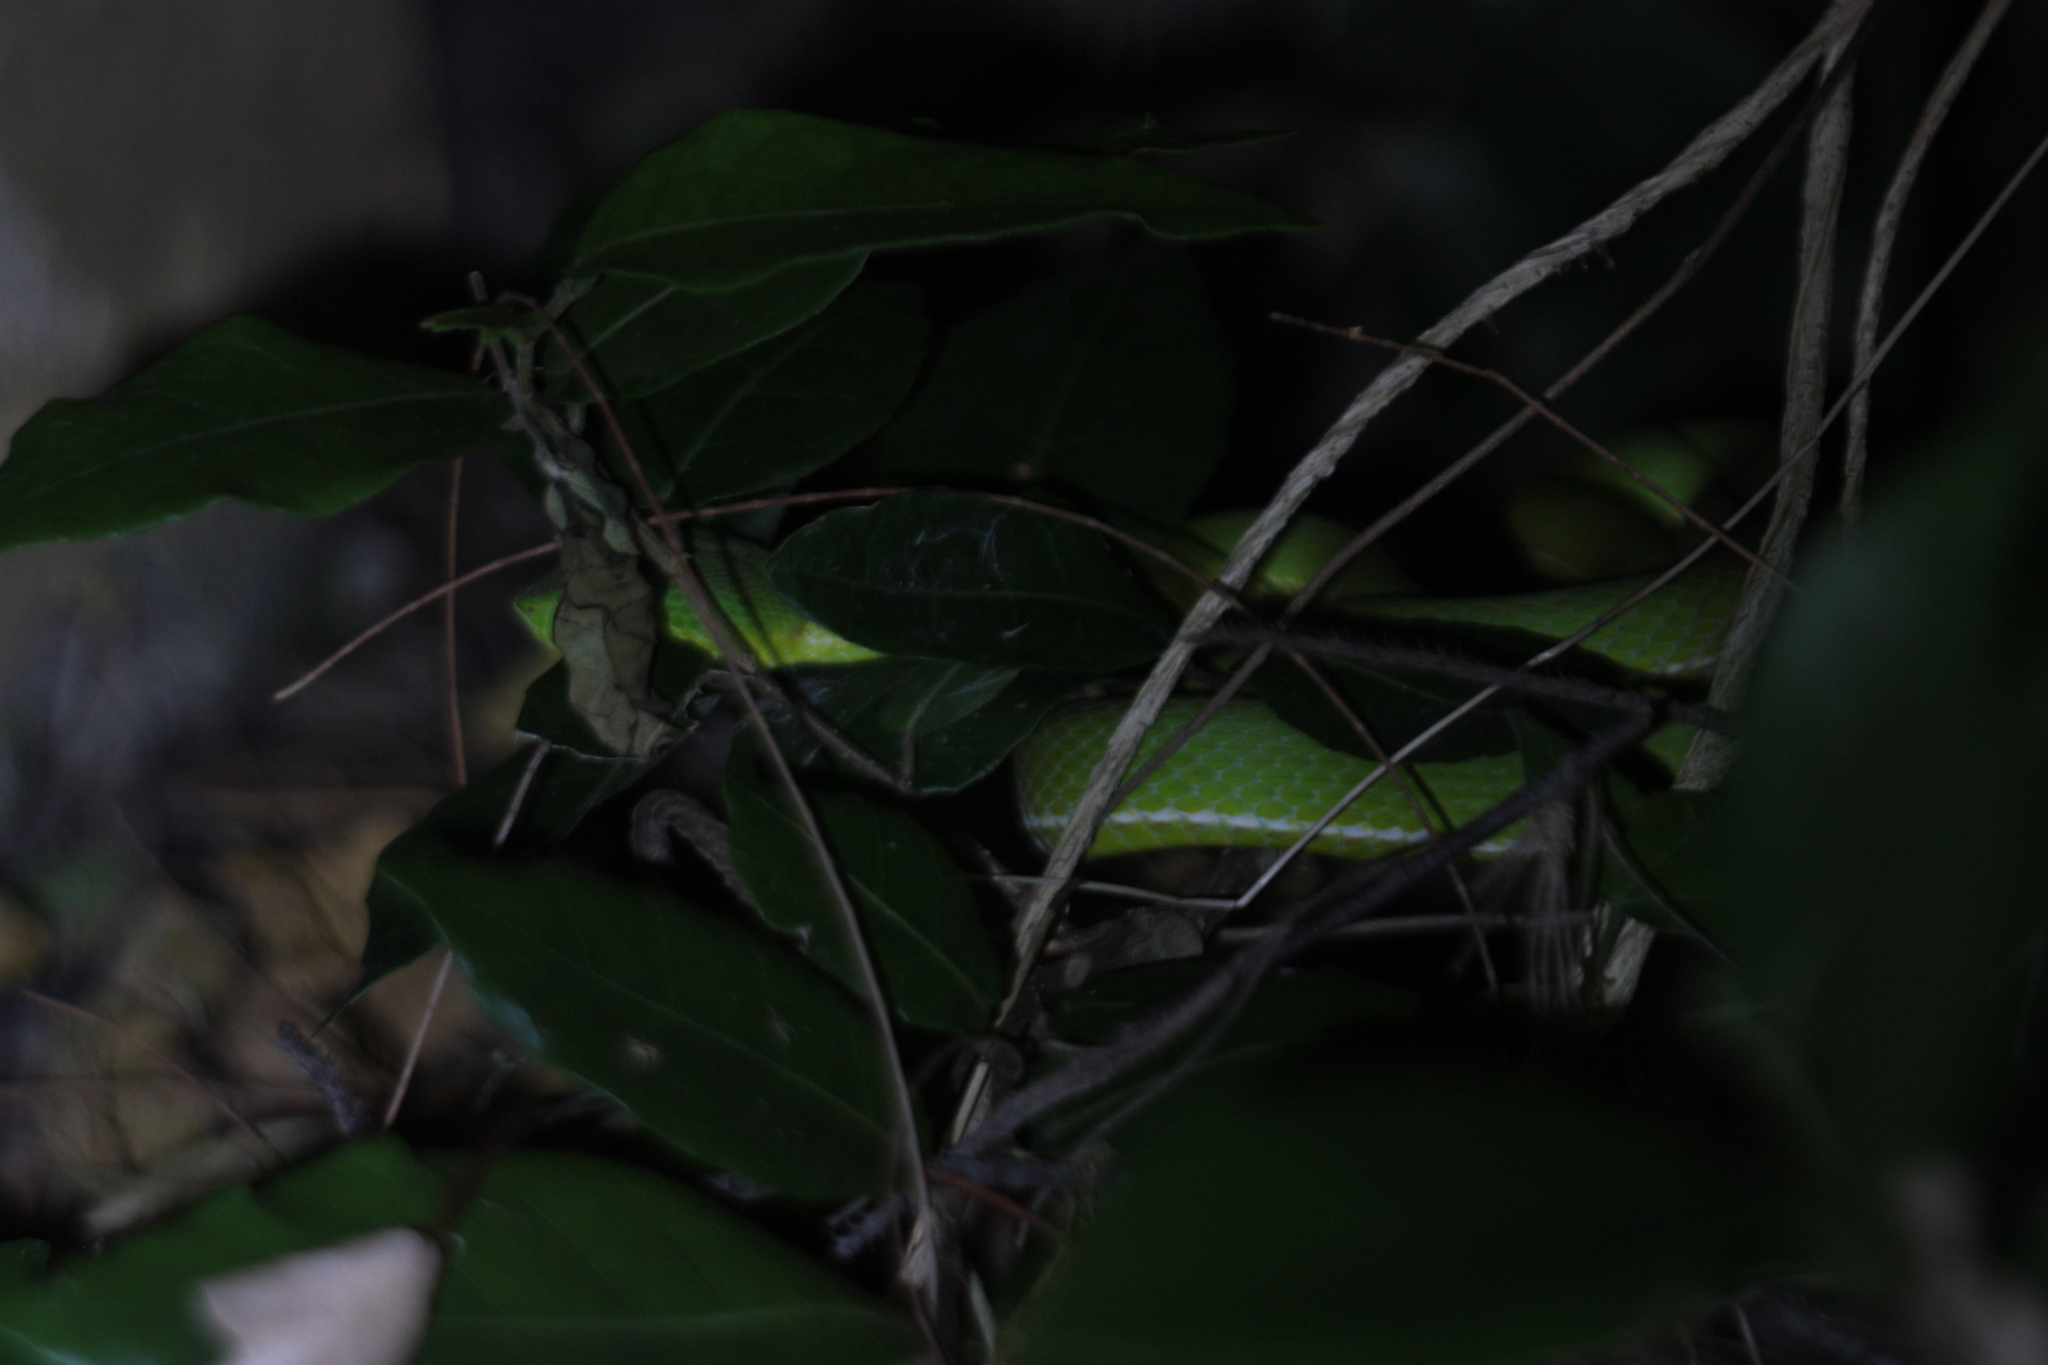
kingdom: Animalia
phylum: Chordata
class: Squamata
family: Viperidae
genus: Trimeresurus
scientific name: Trimeresurus stejnegeri
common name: Chen’s bamboo pit viper
